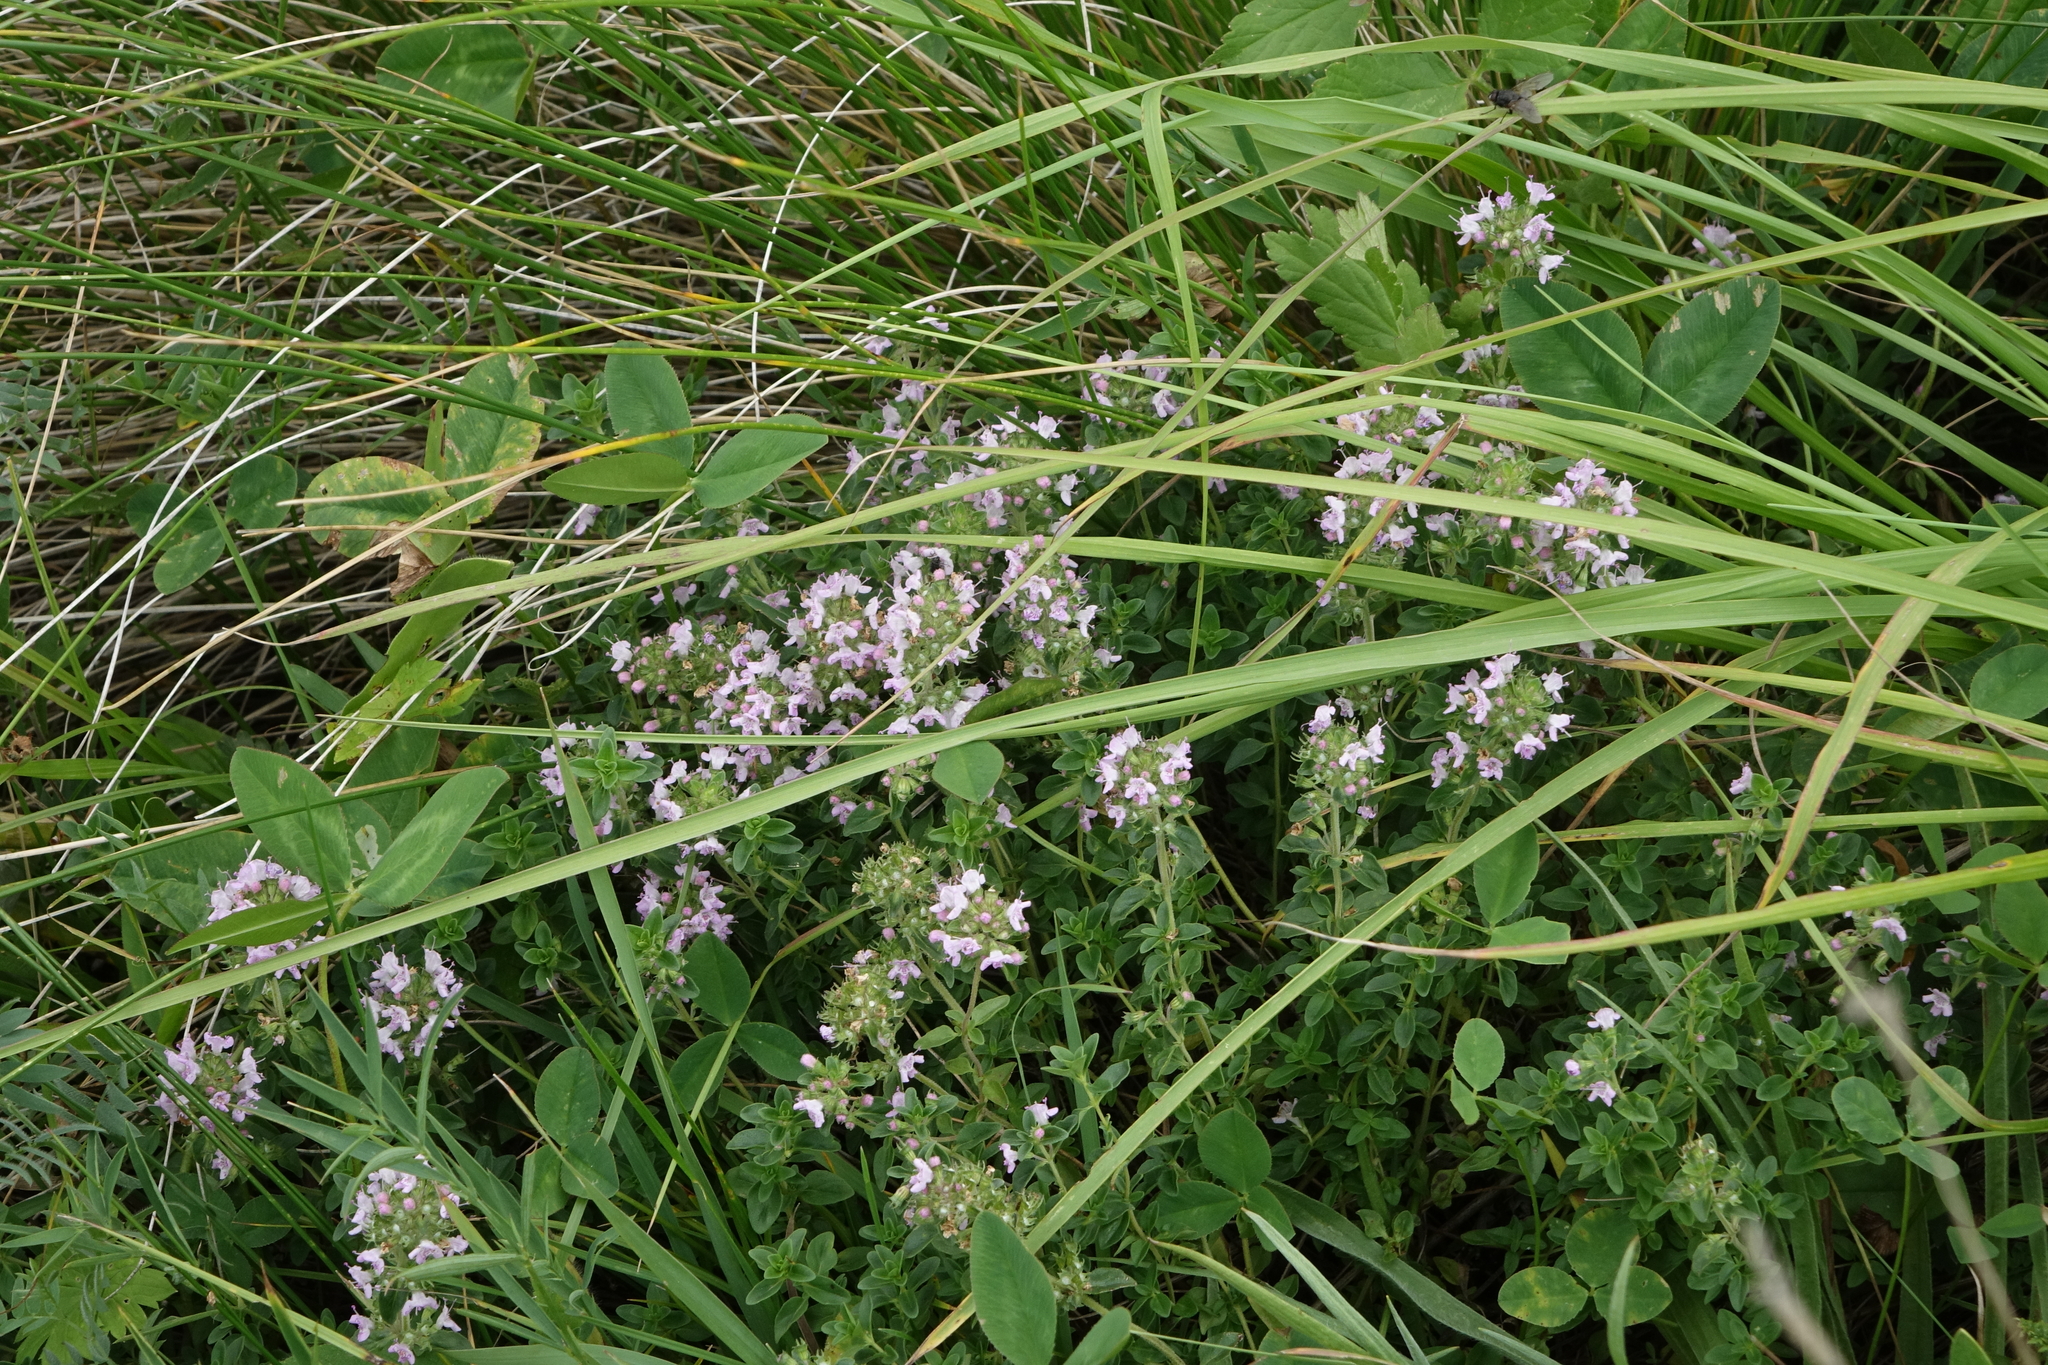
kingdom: Plantae
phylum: Tracheophyta
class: Magnoliopsida
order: Lamiales
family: Lamiaceae
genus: Thymus
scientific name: Thymus pannonicus
